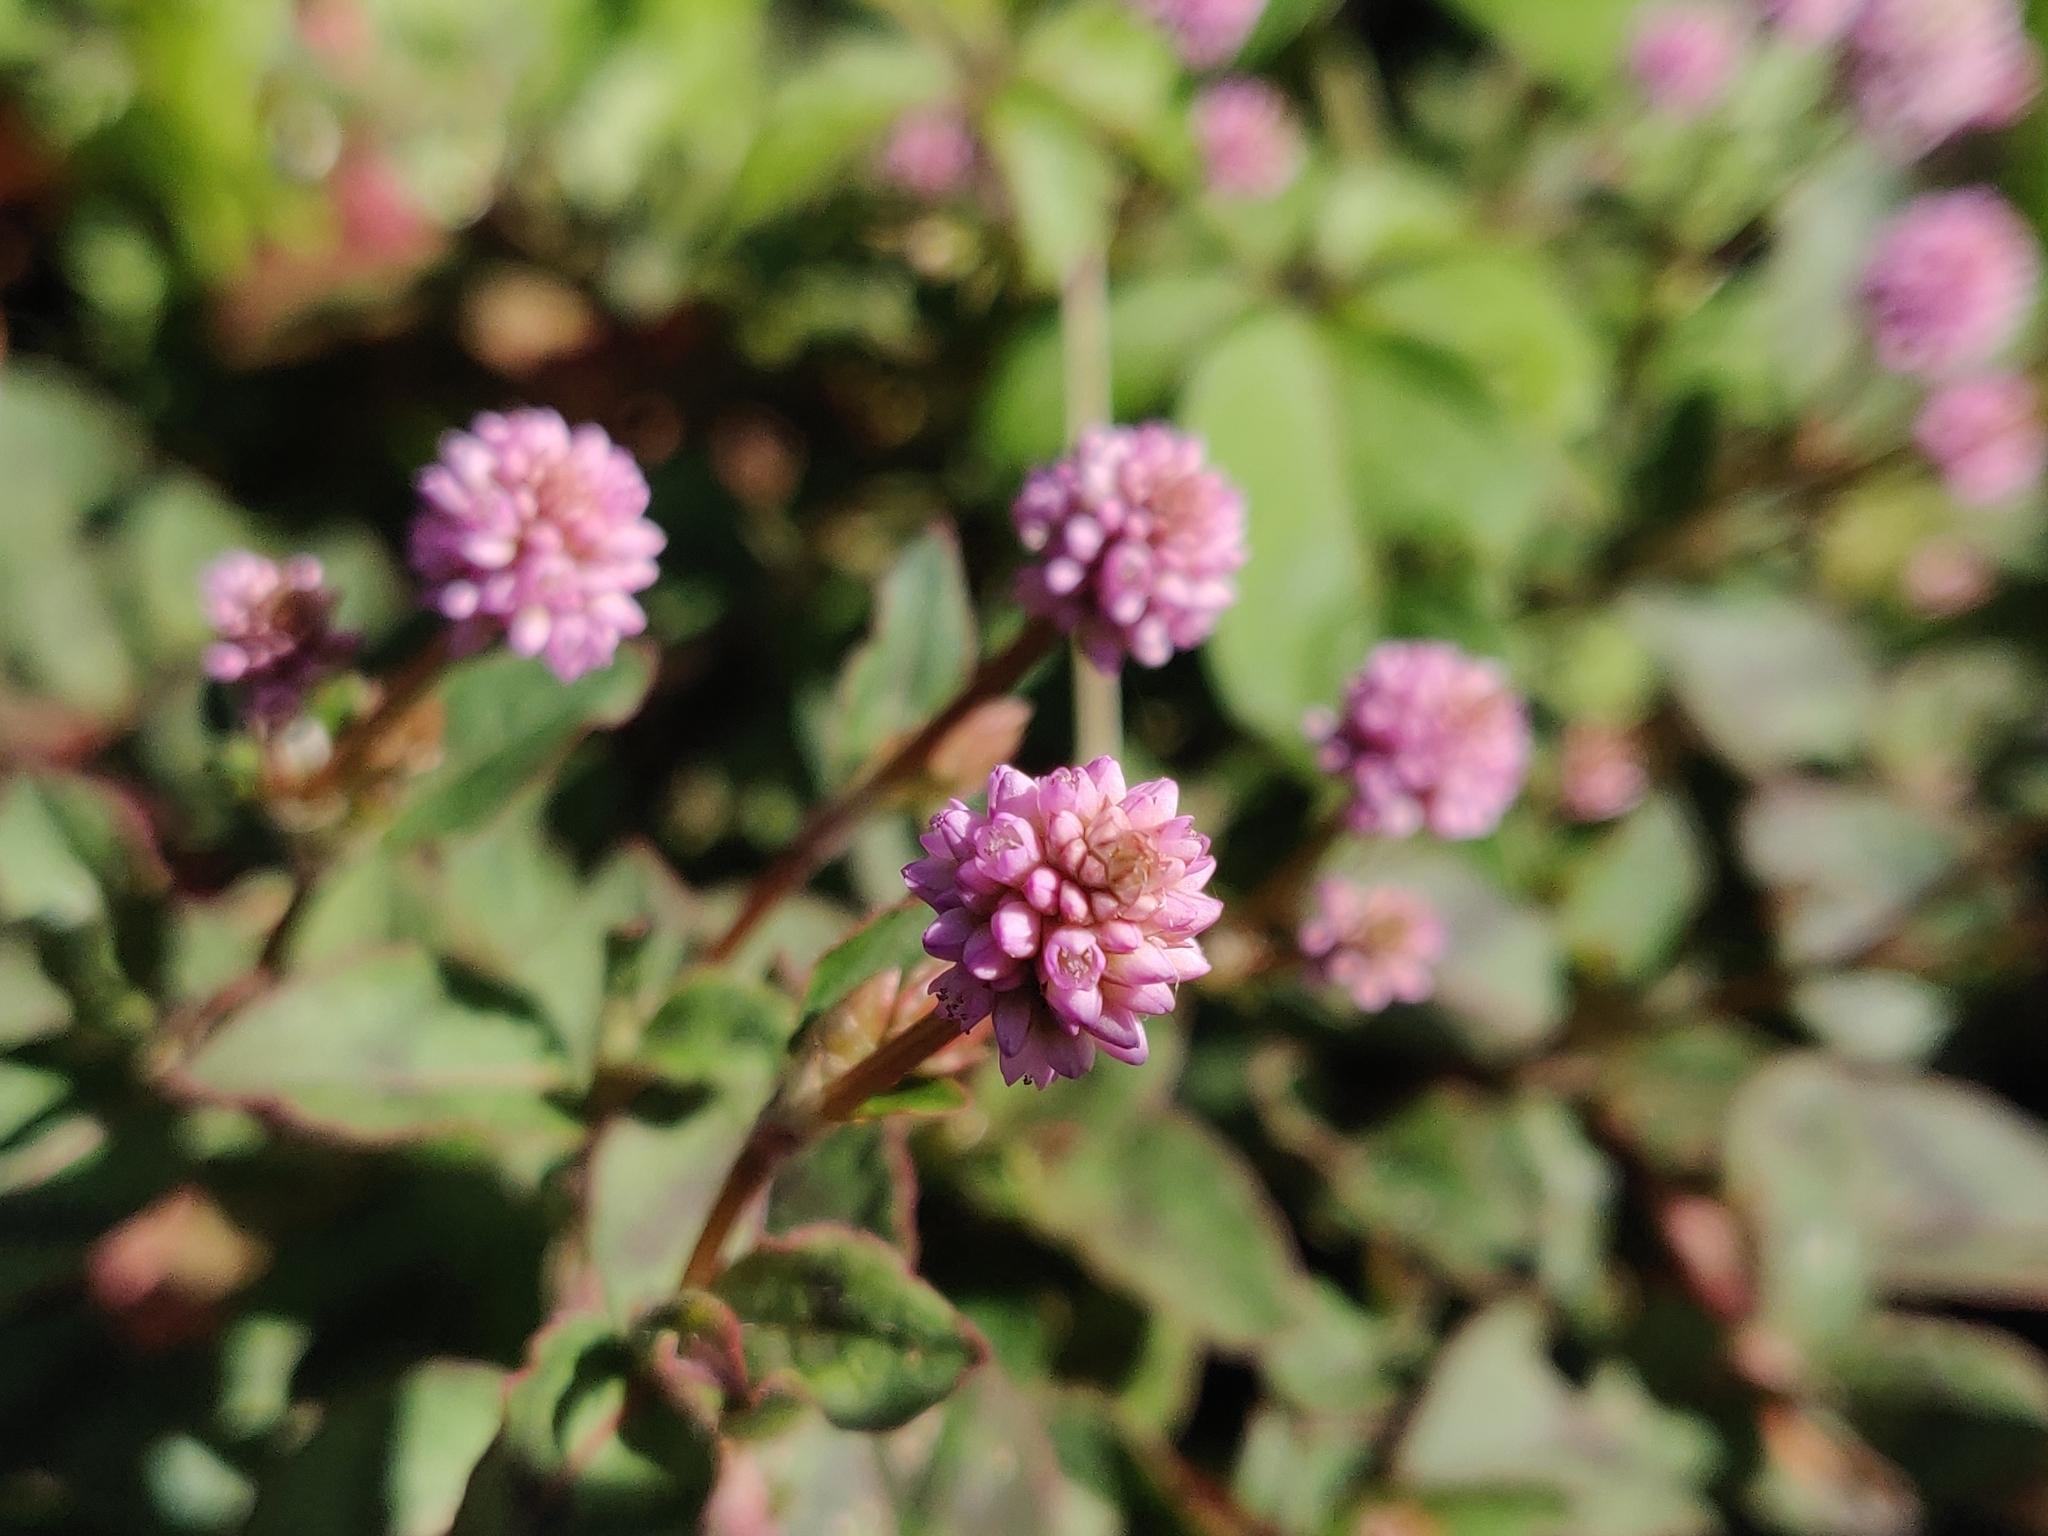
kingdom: Plantae
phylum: Tracheophyta
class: Magnoliopsida
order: Caryophyllales
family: Polygonaceae
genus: Persicaria
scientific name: Persicaria capitata
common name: Pinkhead smartweed
